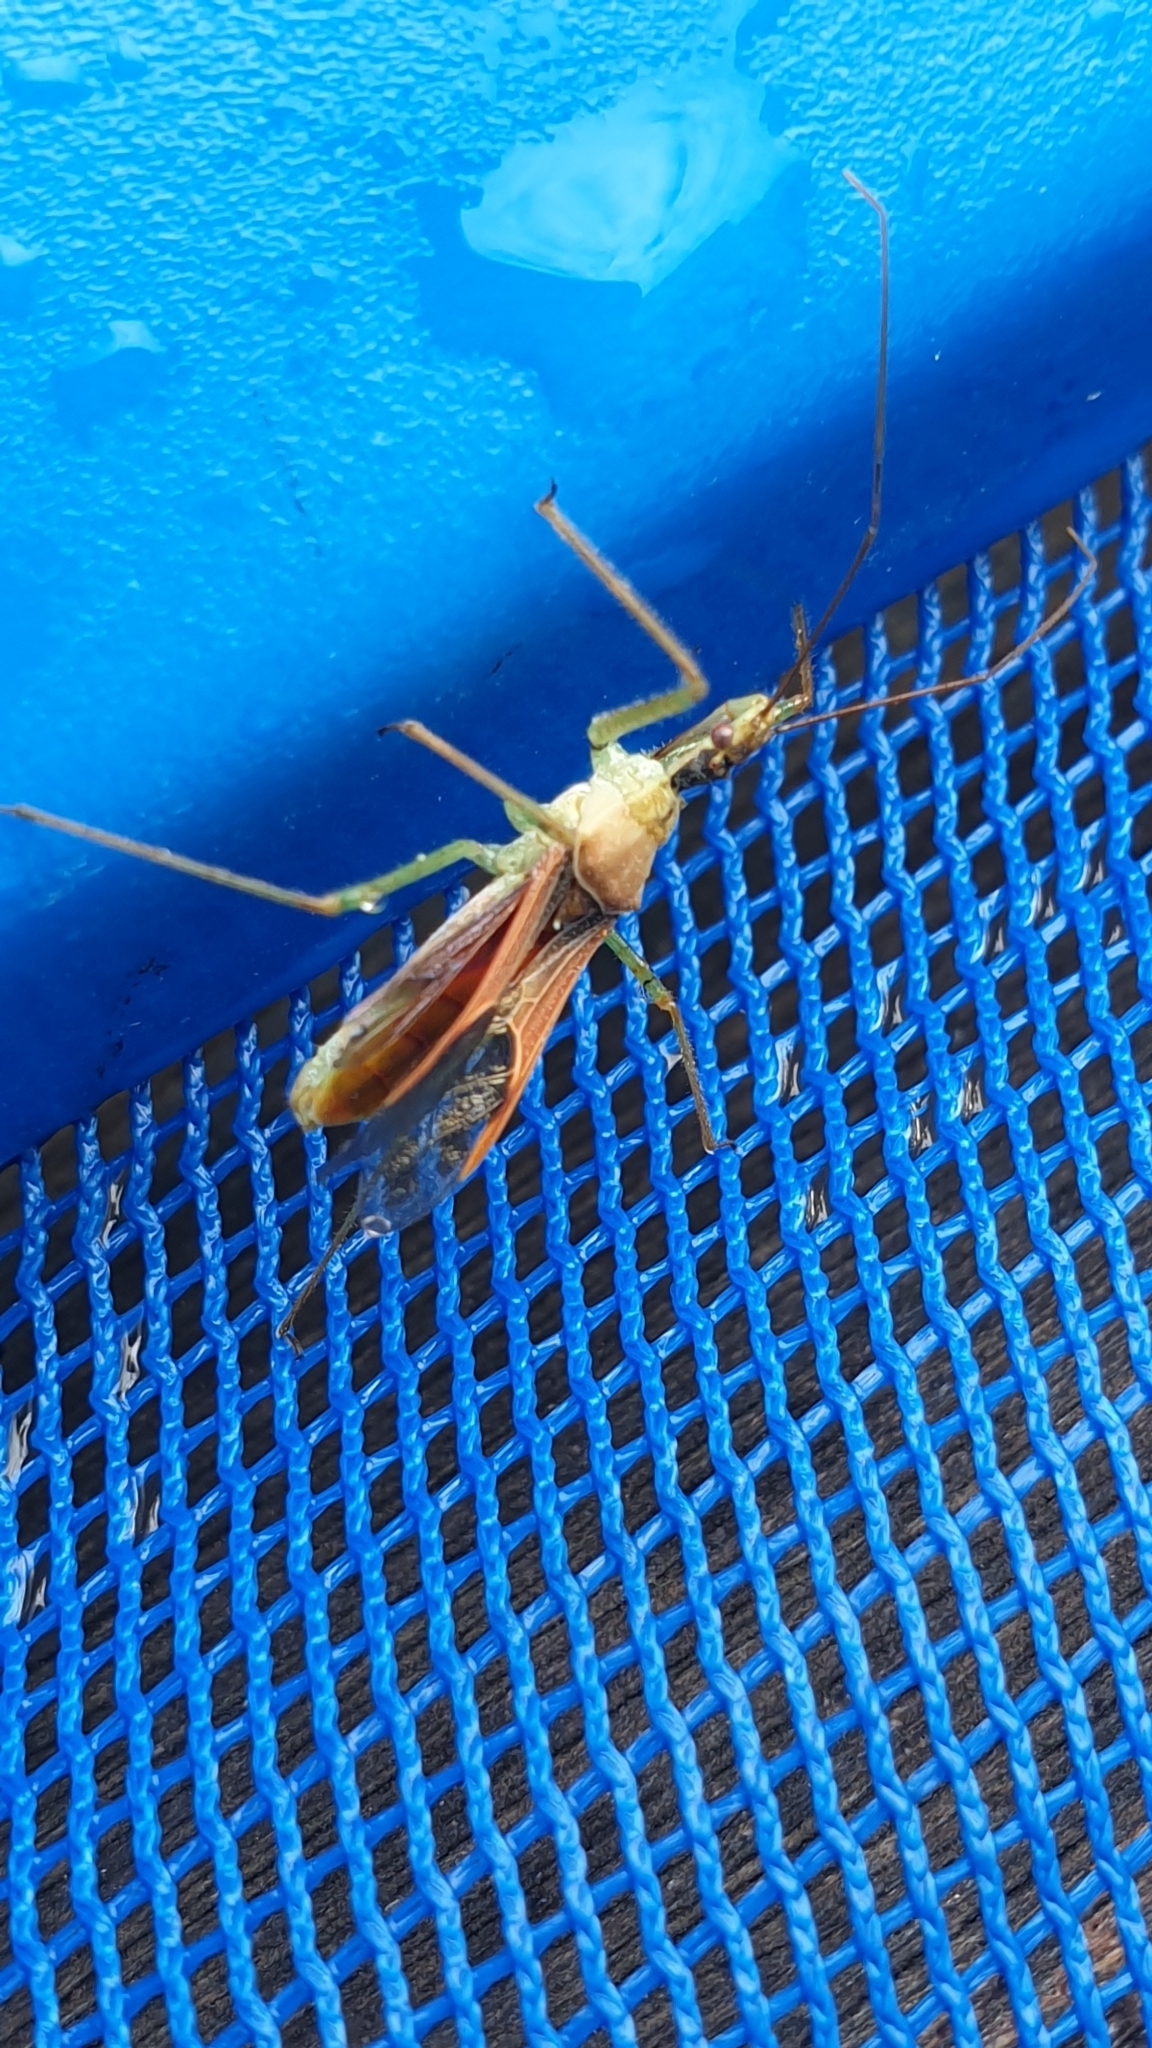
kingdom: Animalia
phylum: Arthropoda
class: Insecta
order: Hemiptera
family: Reduviidae
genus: Zelus
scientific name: Zelus renardii
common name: Assassin bug
